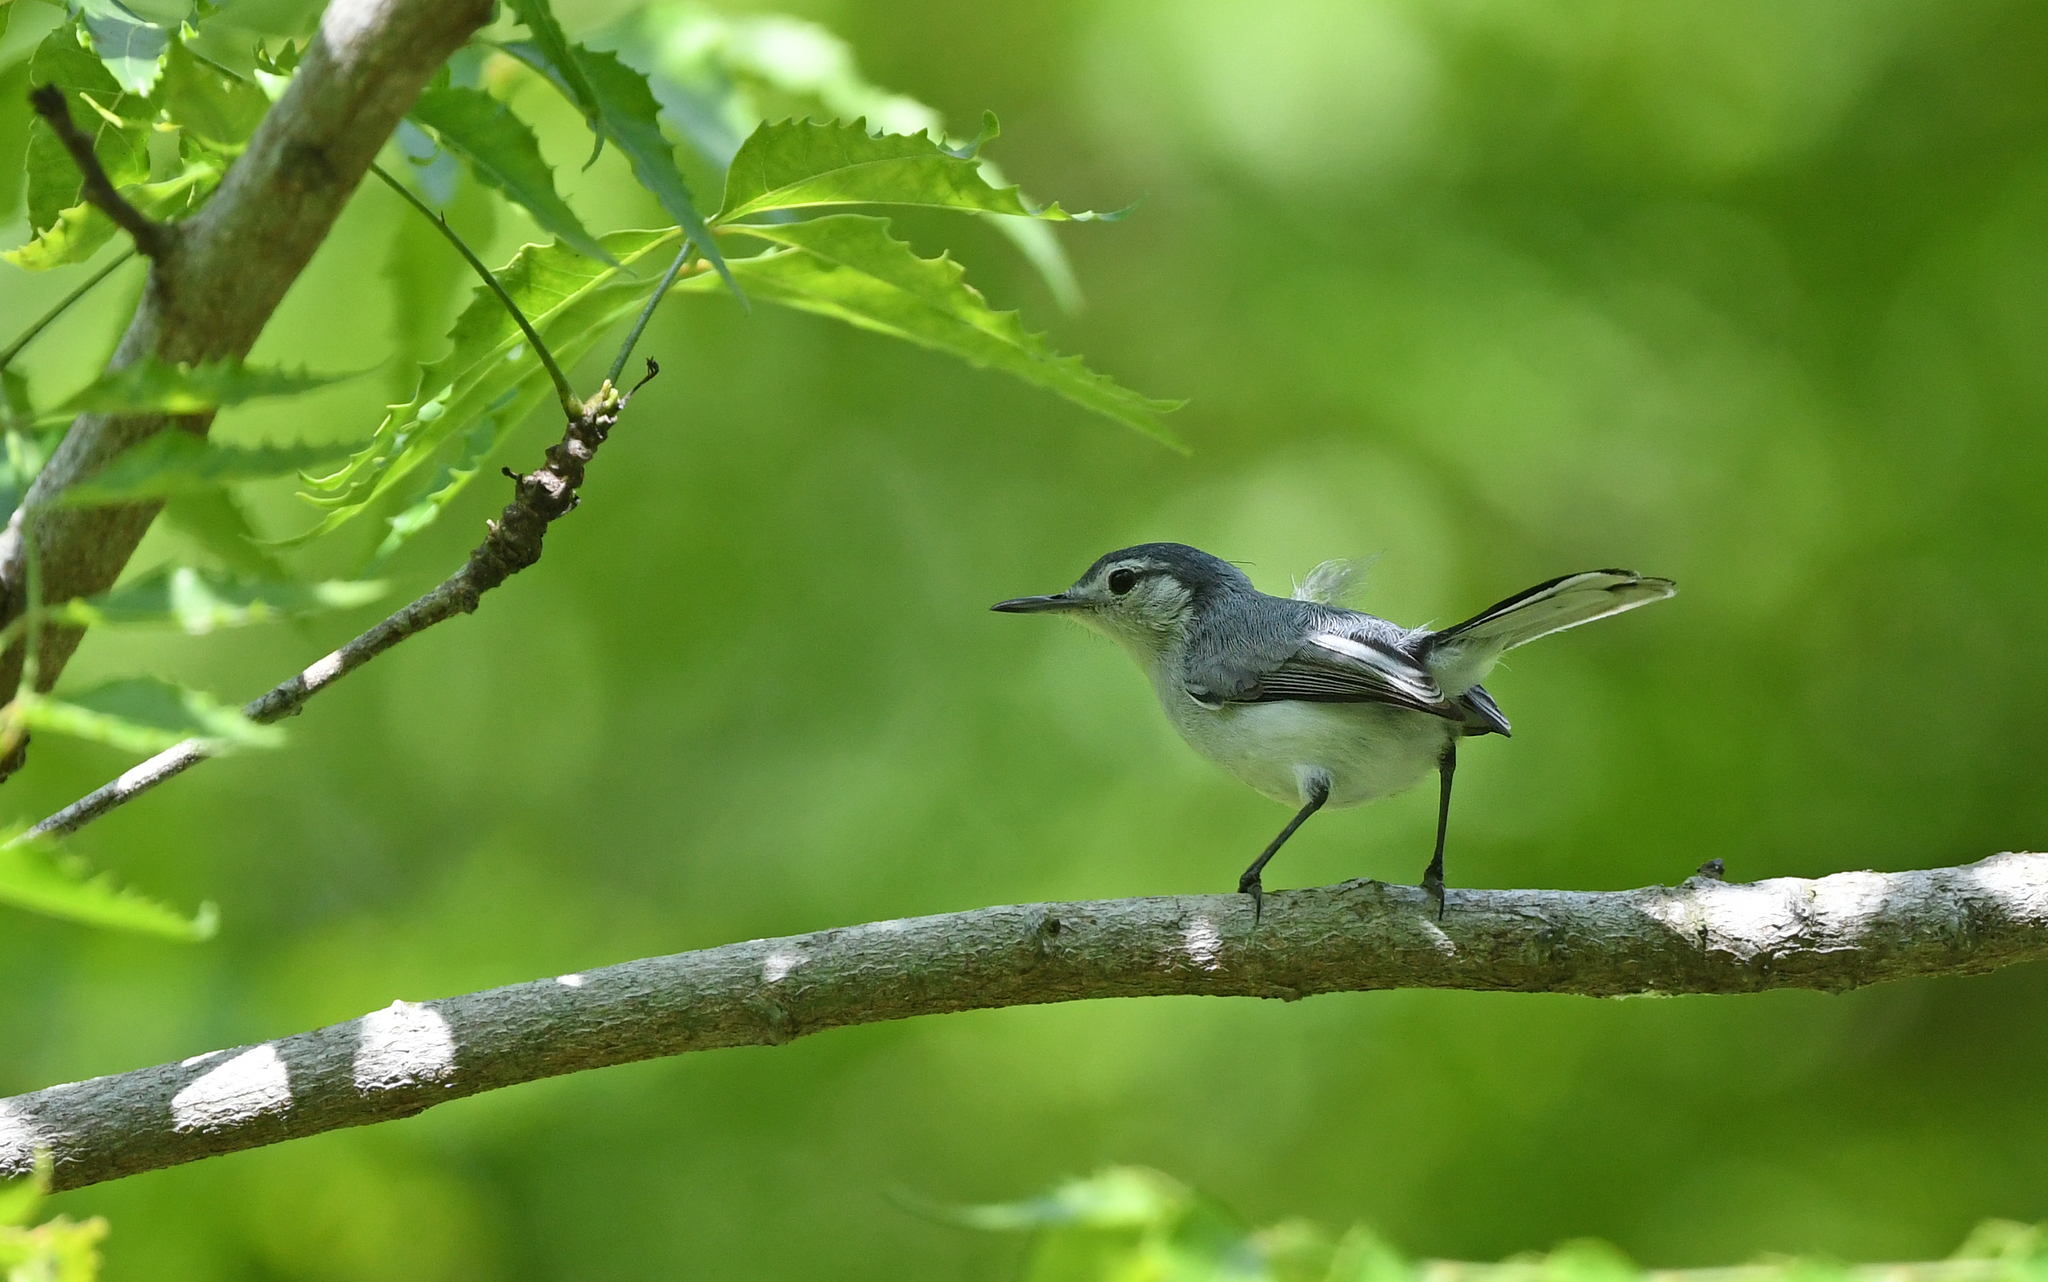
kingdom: Animalia
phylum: Chordata
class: Aves
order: Passeriformes
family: Polioptilidae
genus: Polioptila
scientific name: Polioptila plumbea
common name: Tropical gnatcatcher
